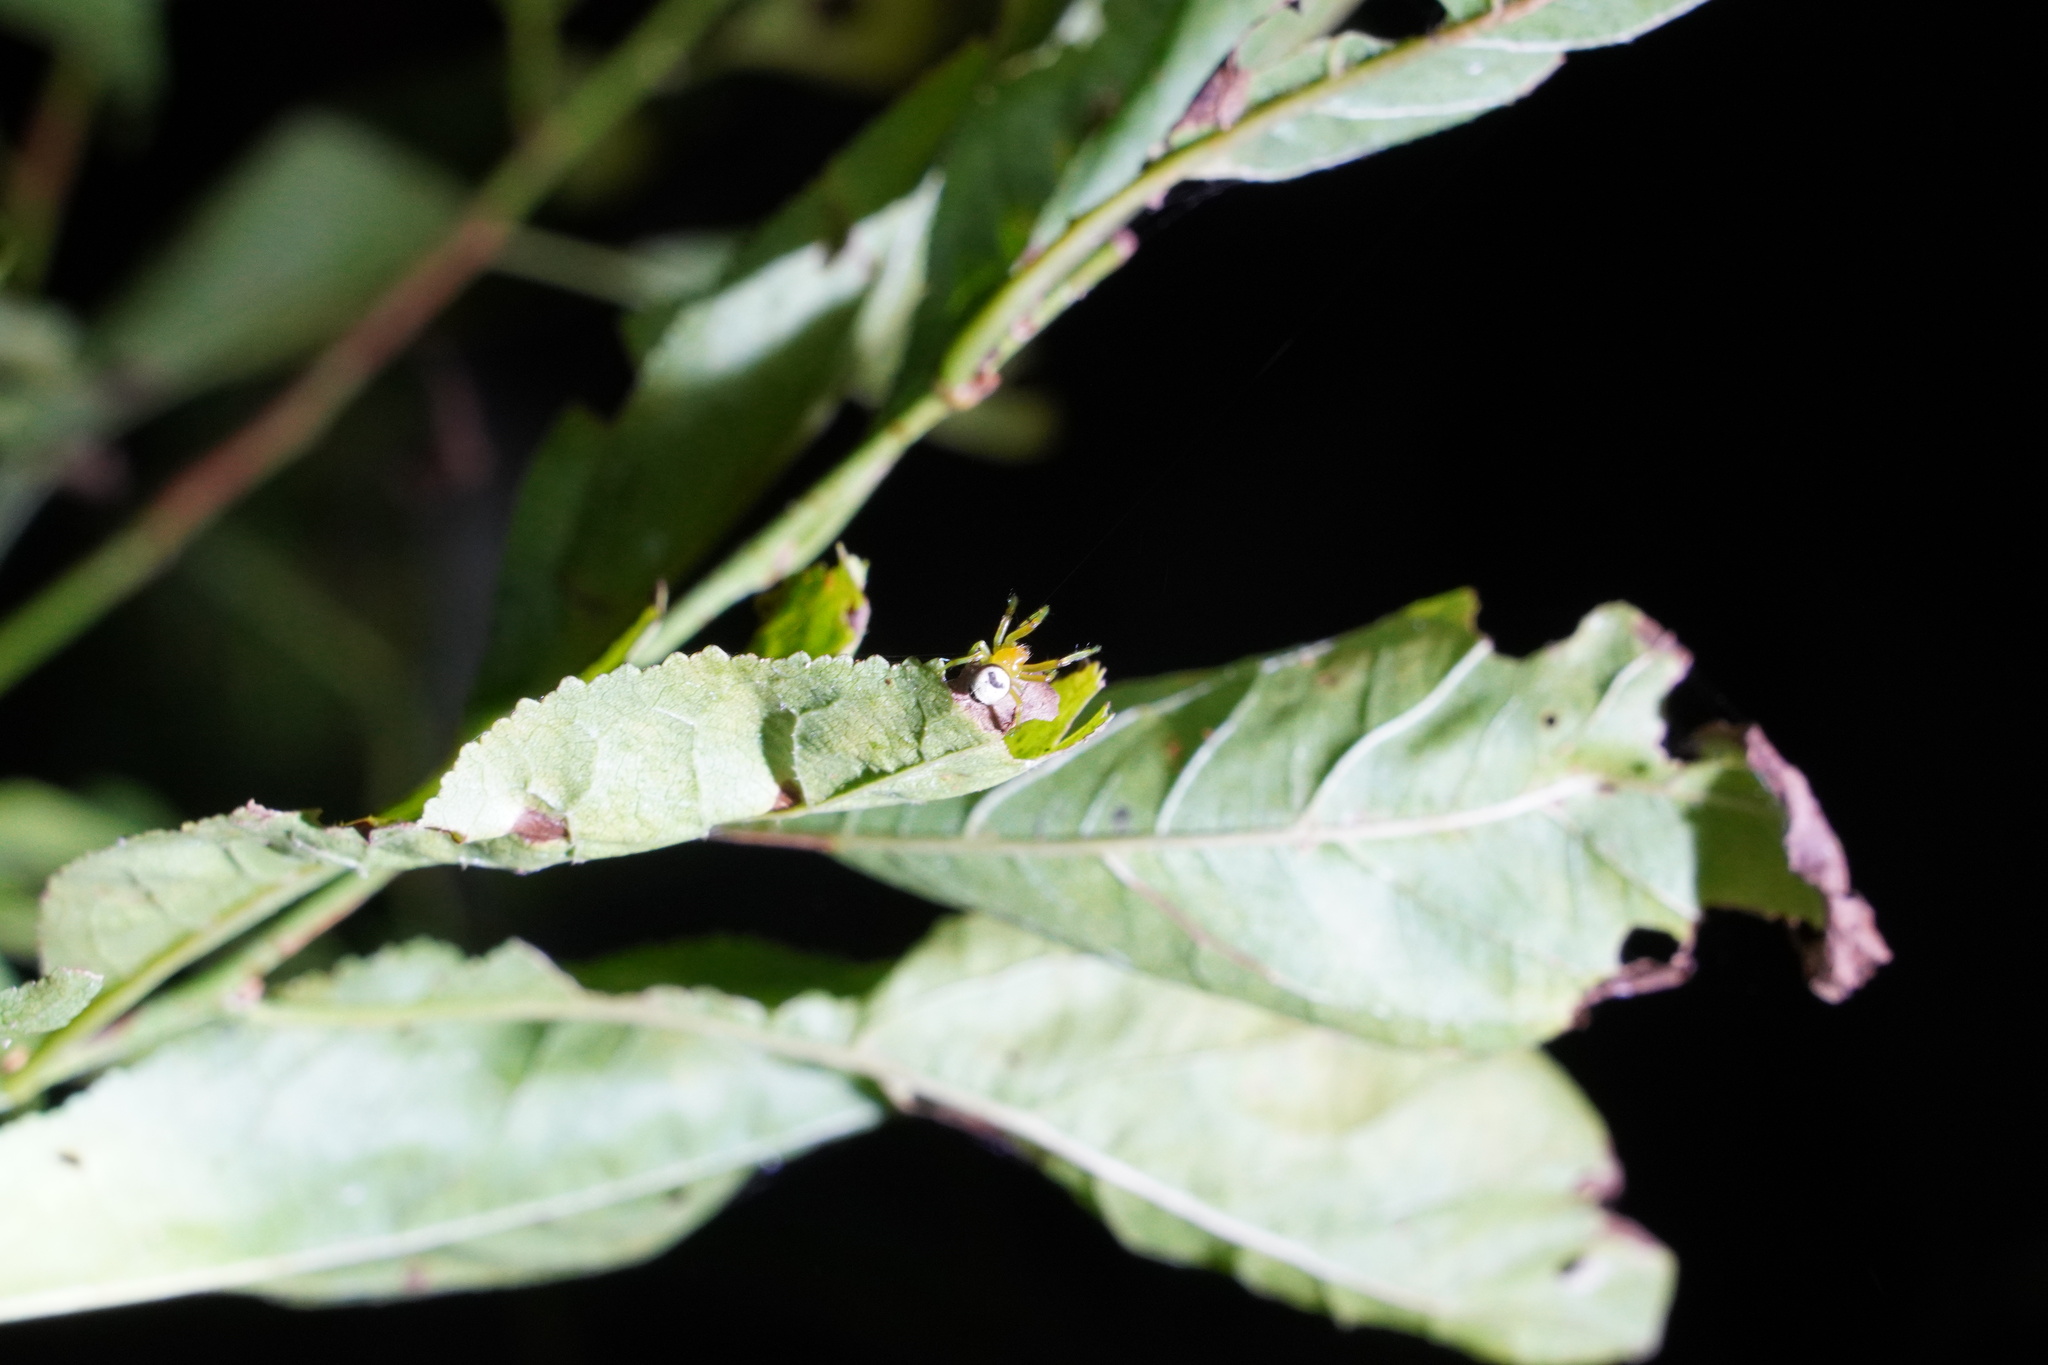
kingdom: Animalia
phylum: Arthropoda
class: Arachnida
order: Araneae
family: Araneidae
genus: Bijoaraneus
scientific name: Bijoaraneus mitificus
